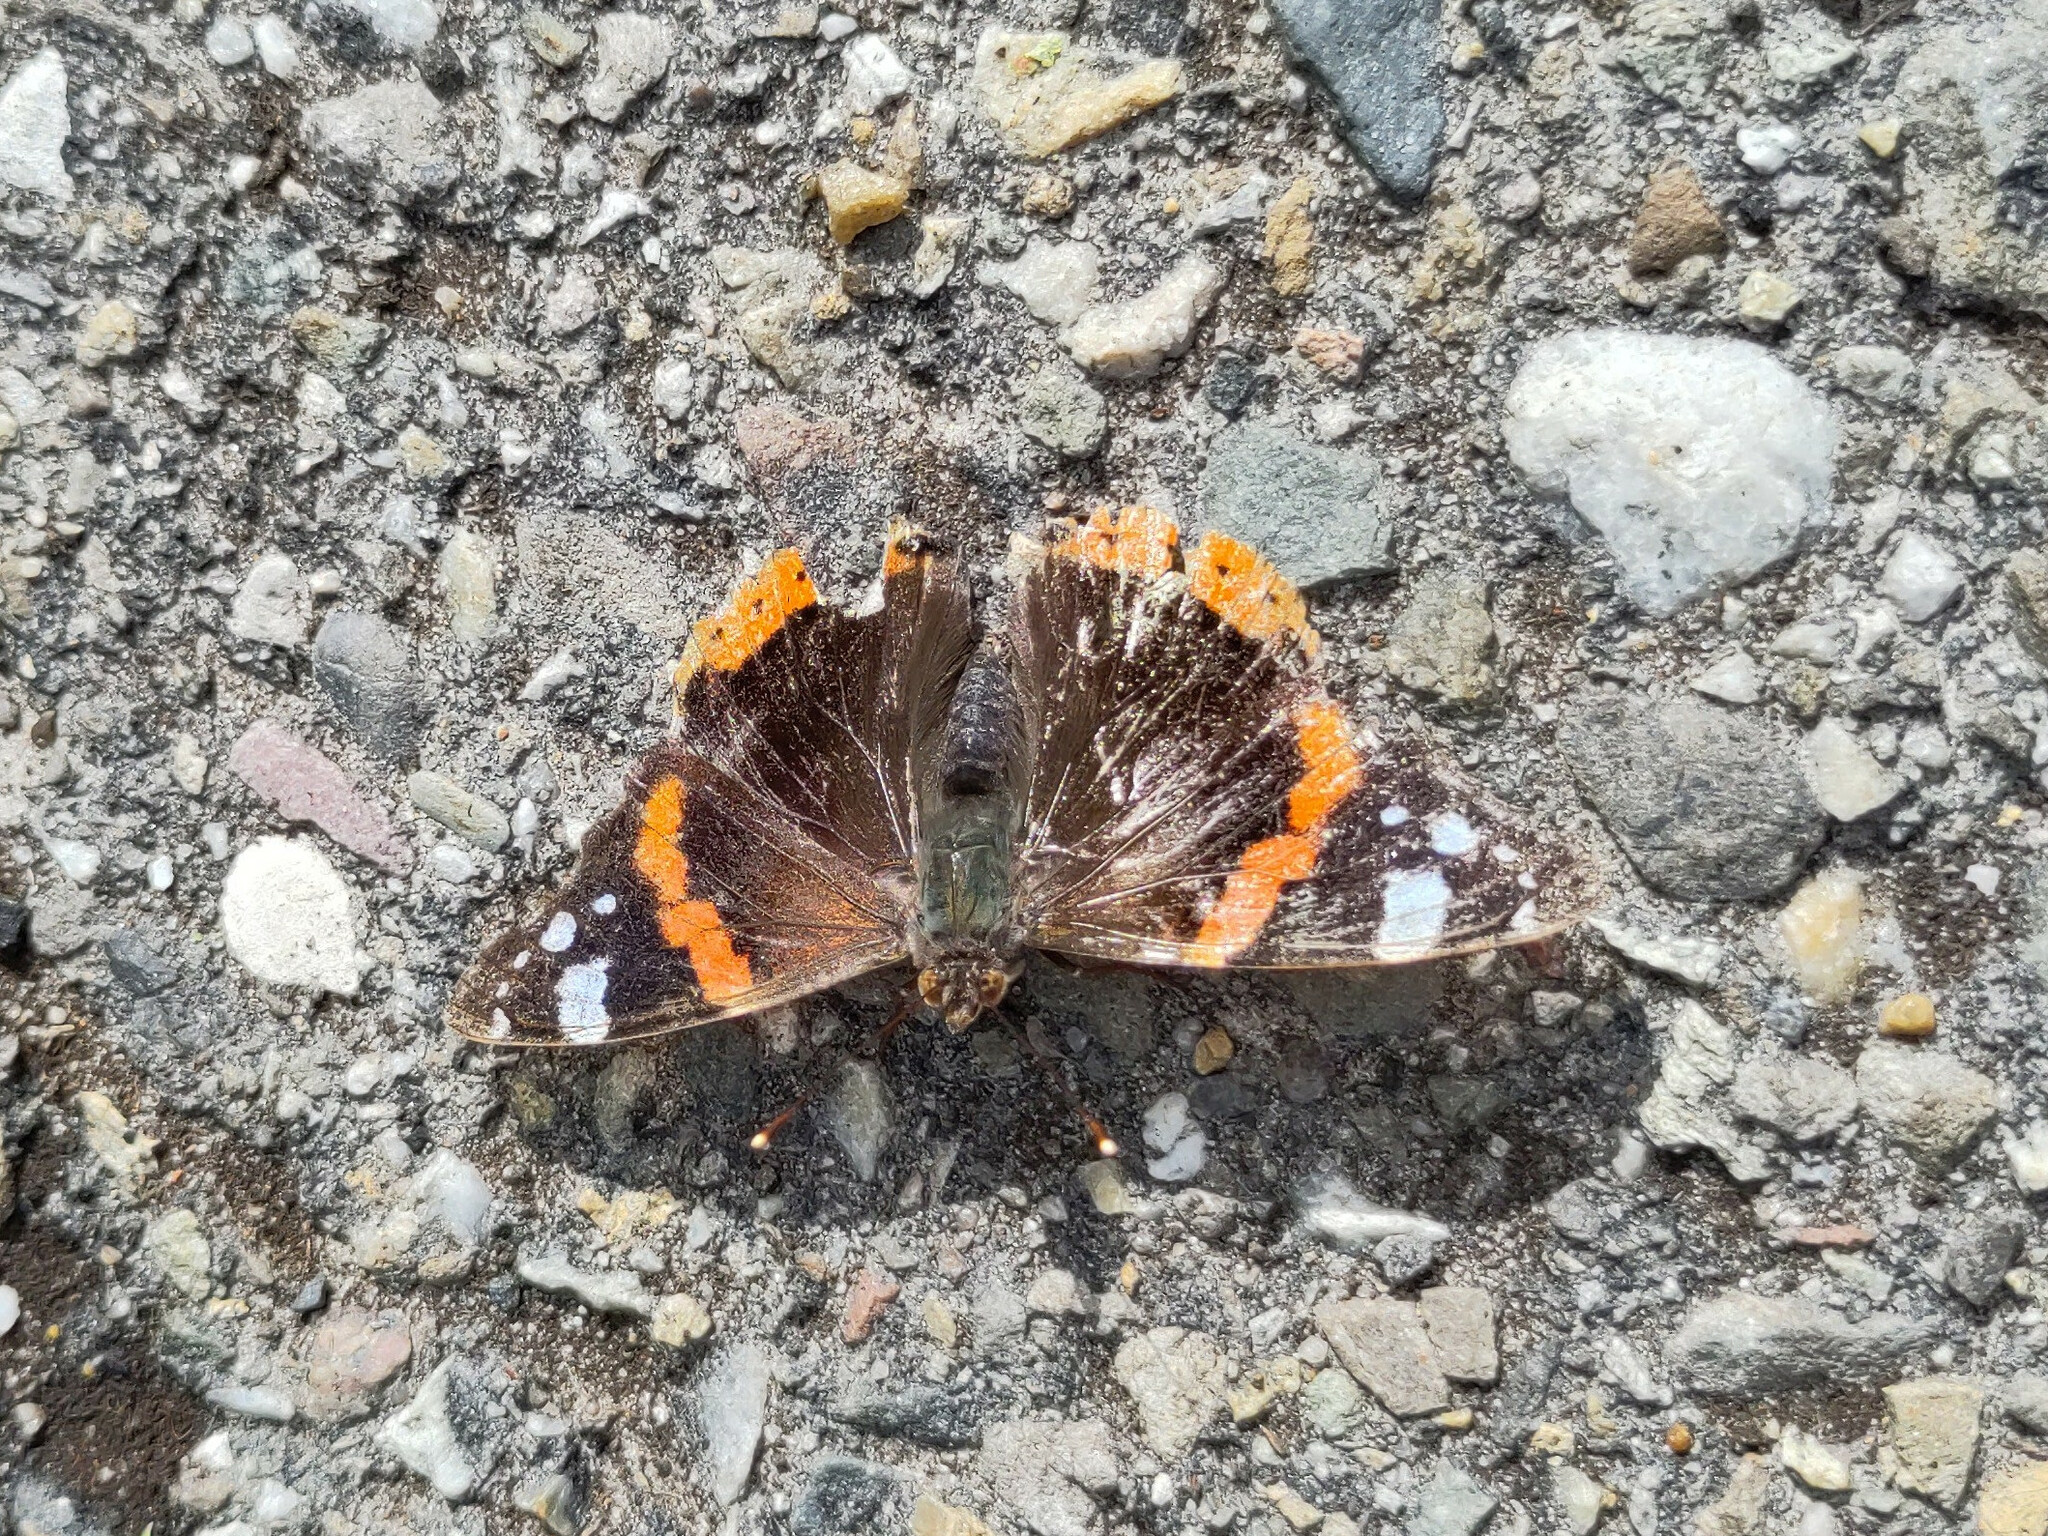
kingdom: Animalia
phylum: Arthropoda
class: Insecta
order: Lepidoptera
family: Nymphalidae
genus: Vanessa
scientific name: Vanessa atalanta
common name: Red admiral
